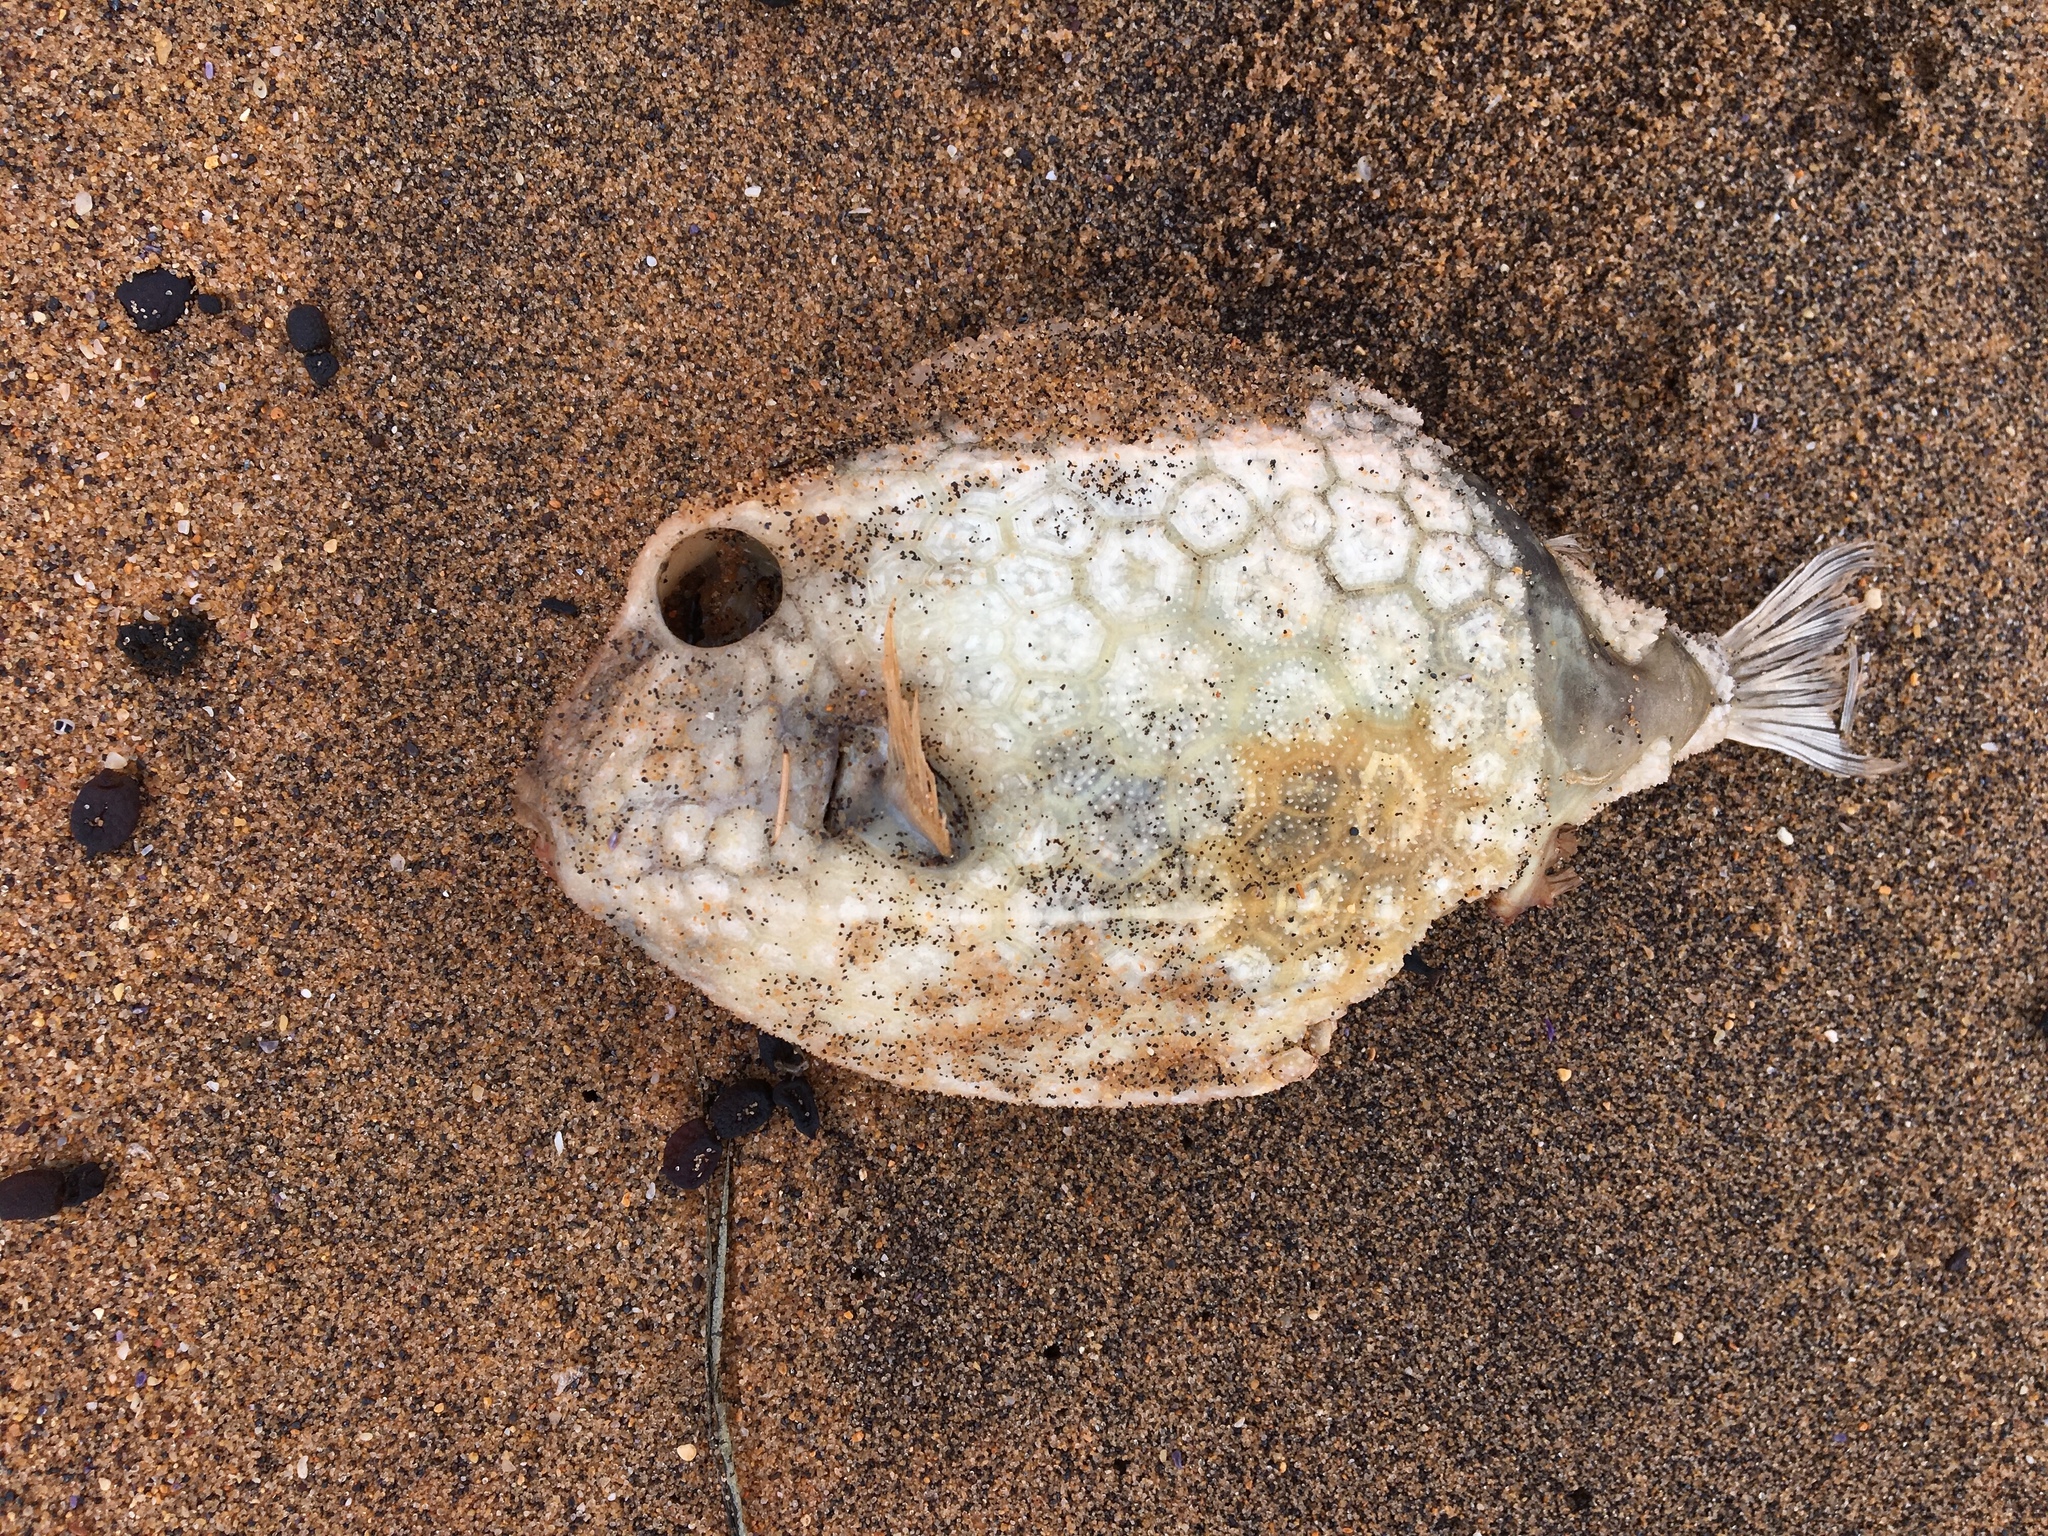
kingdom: Animalia
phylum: Chordata
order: Tetraodontiformes
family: Aracanidae
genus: Anoplocapros
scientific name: Anoplocapros inermis
